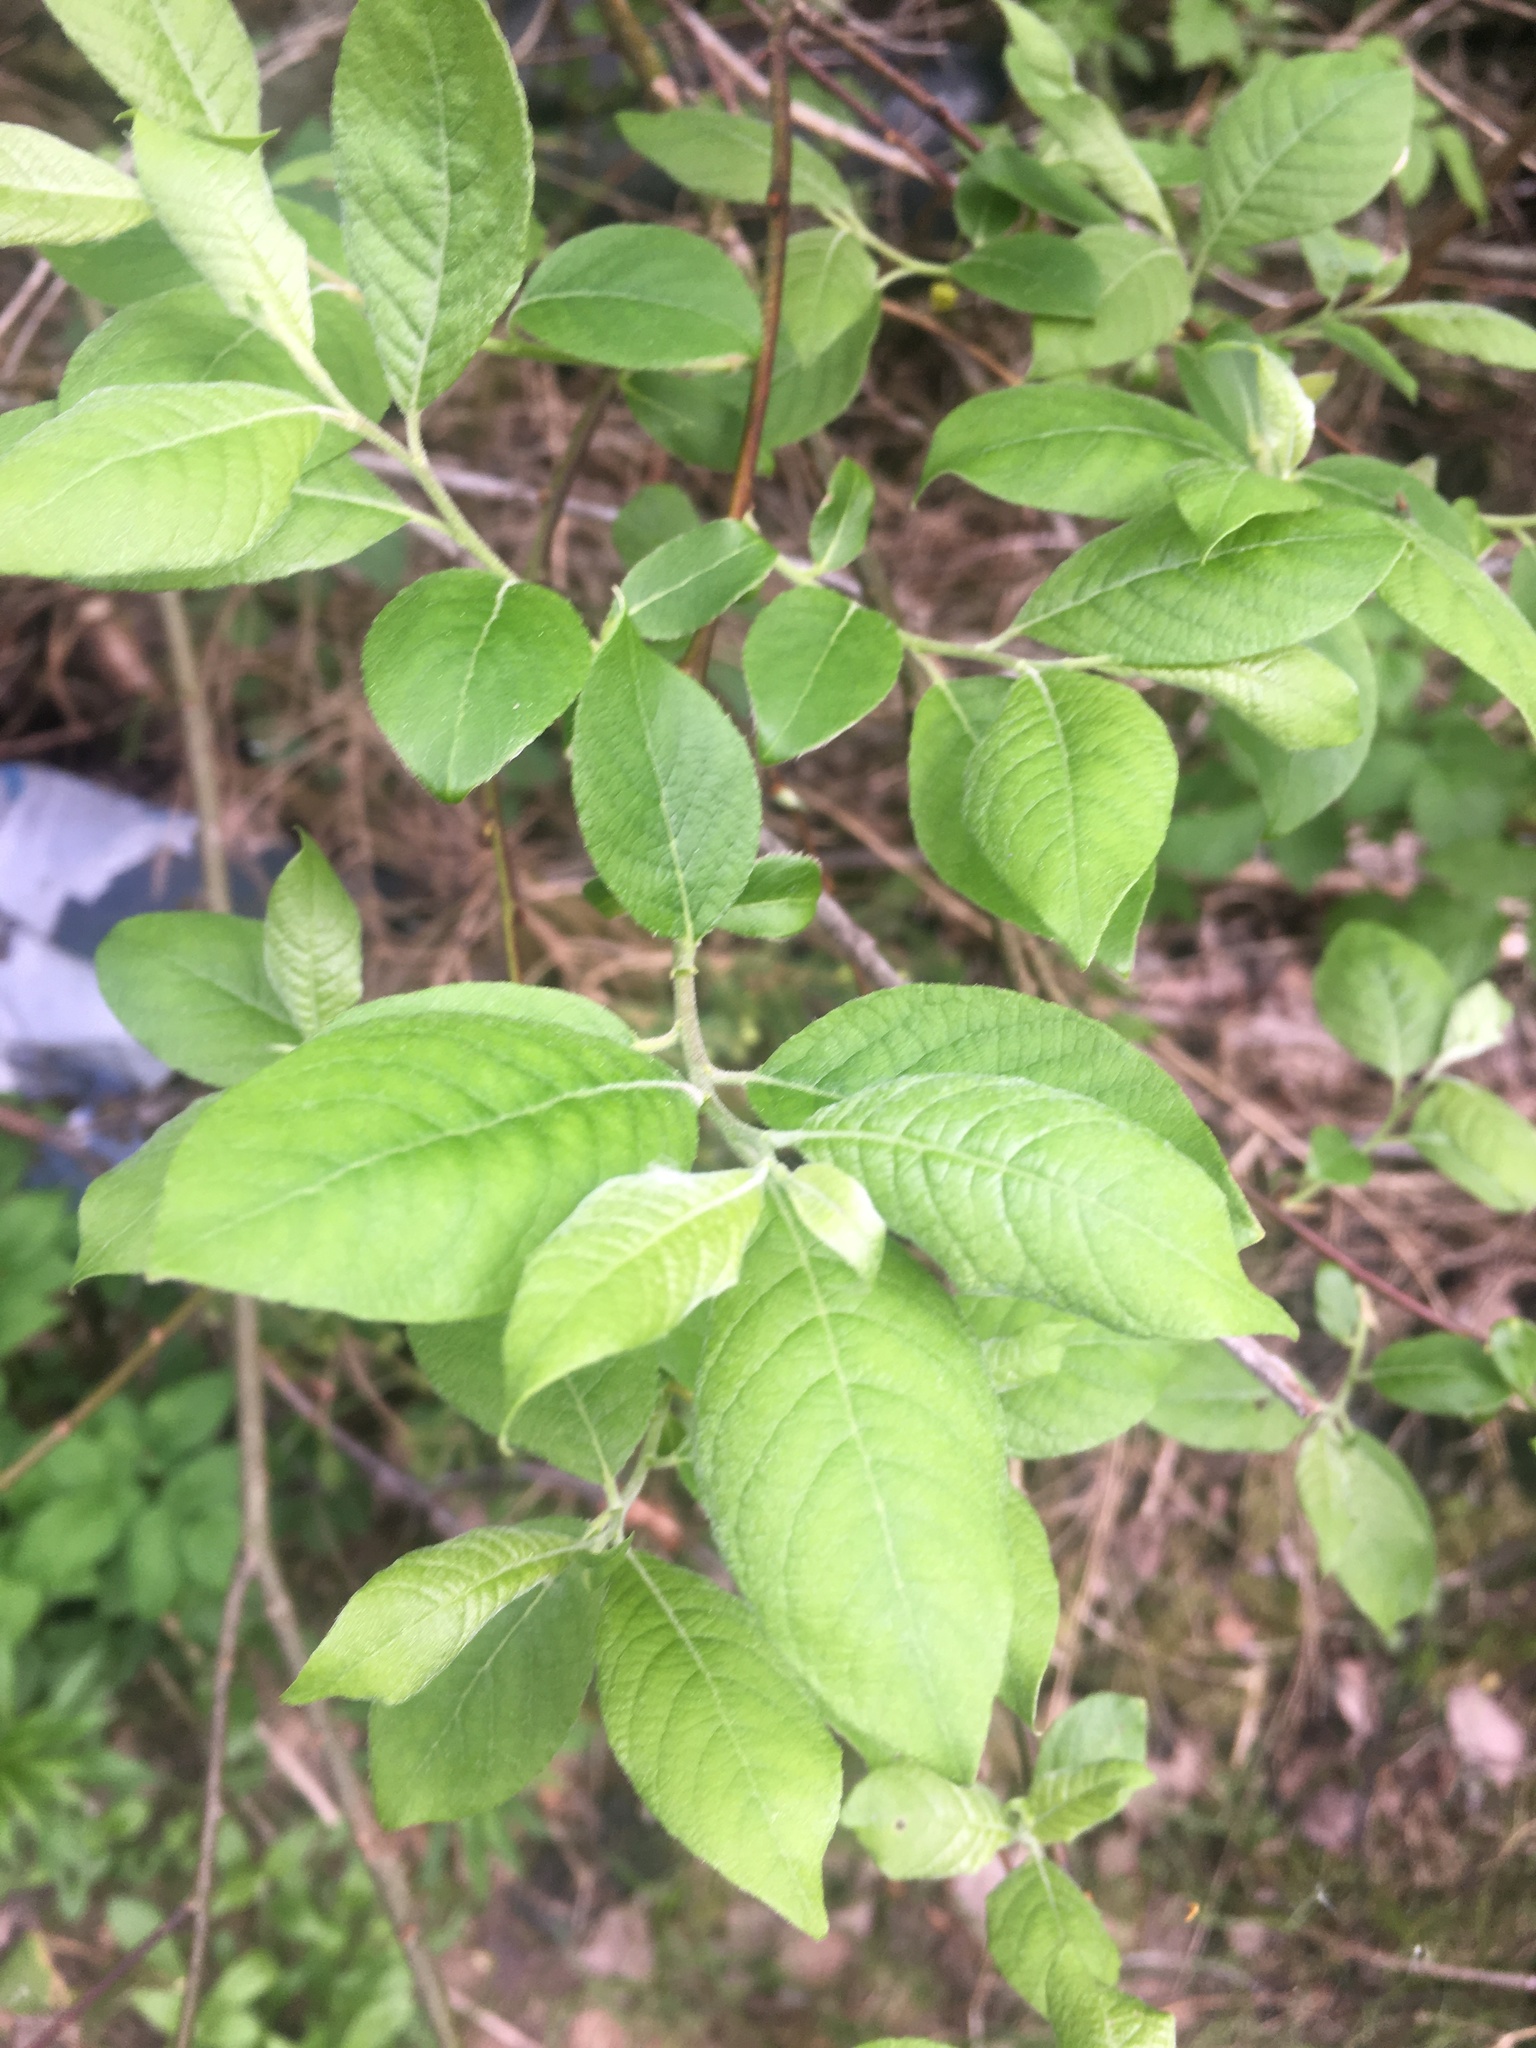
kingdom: Plantae
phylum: Tracheophyta
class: Magnoliopsida
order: Malpighiales
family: Salicaceae
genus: Salix
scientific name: Salix caprea
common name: Goat willow
